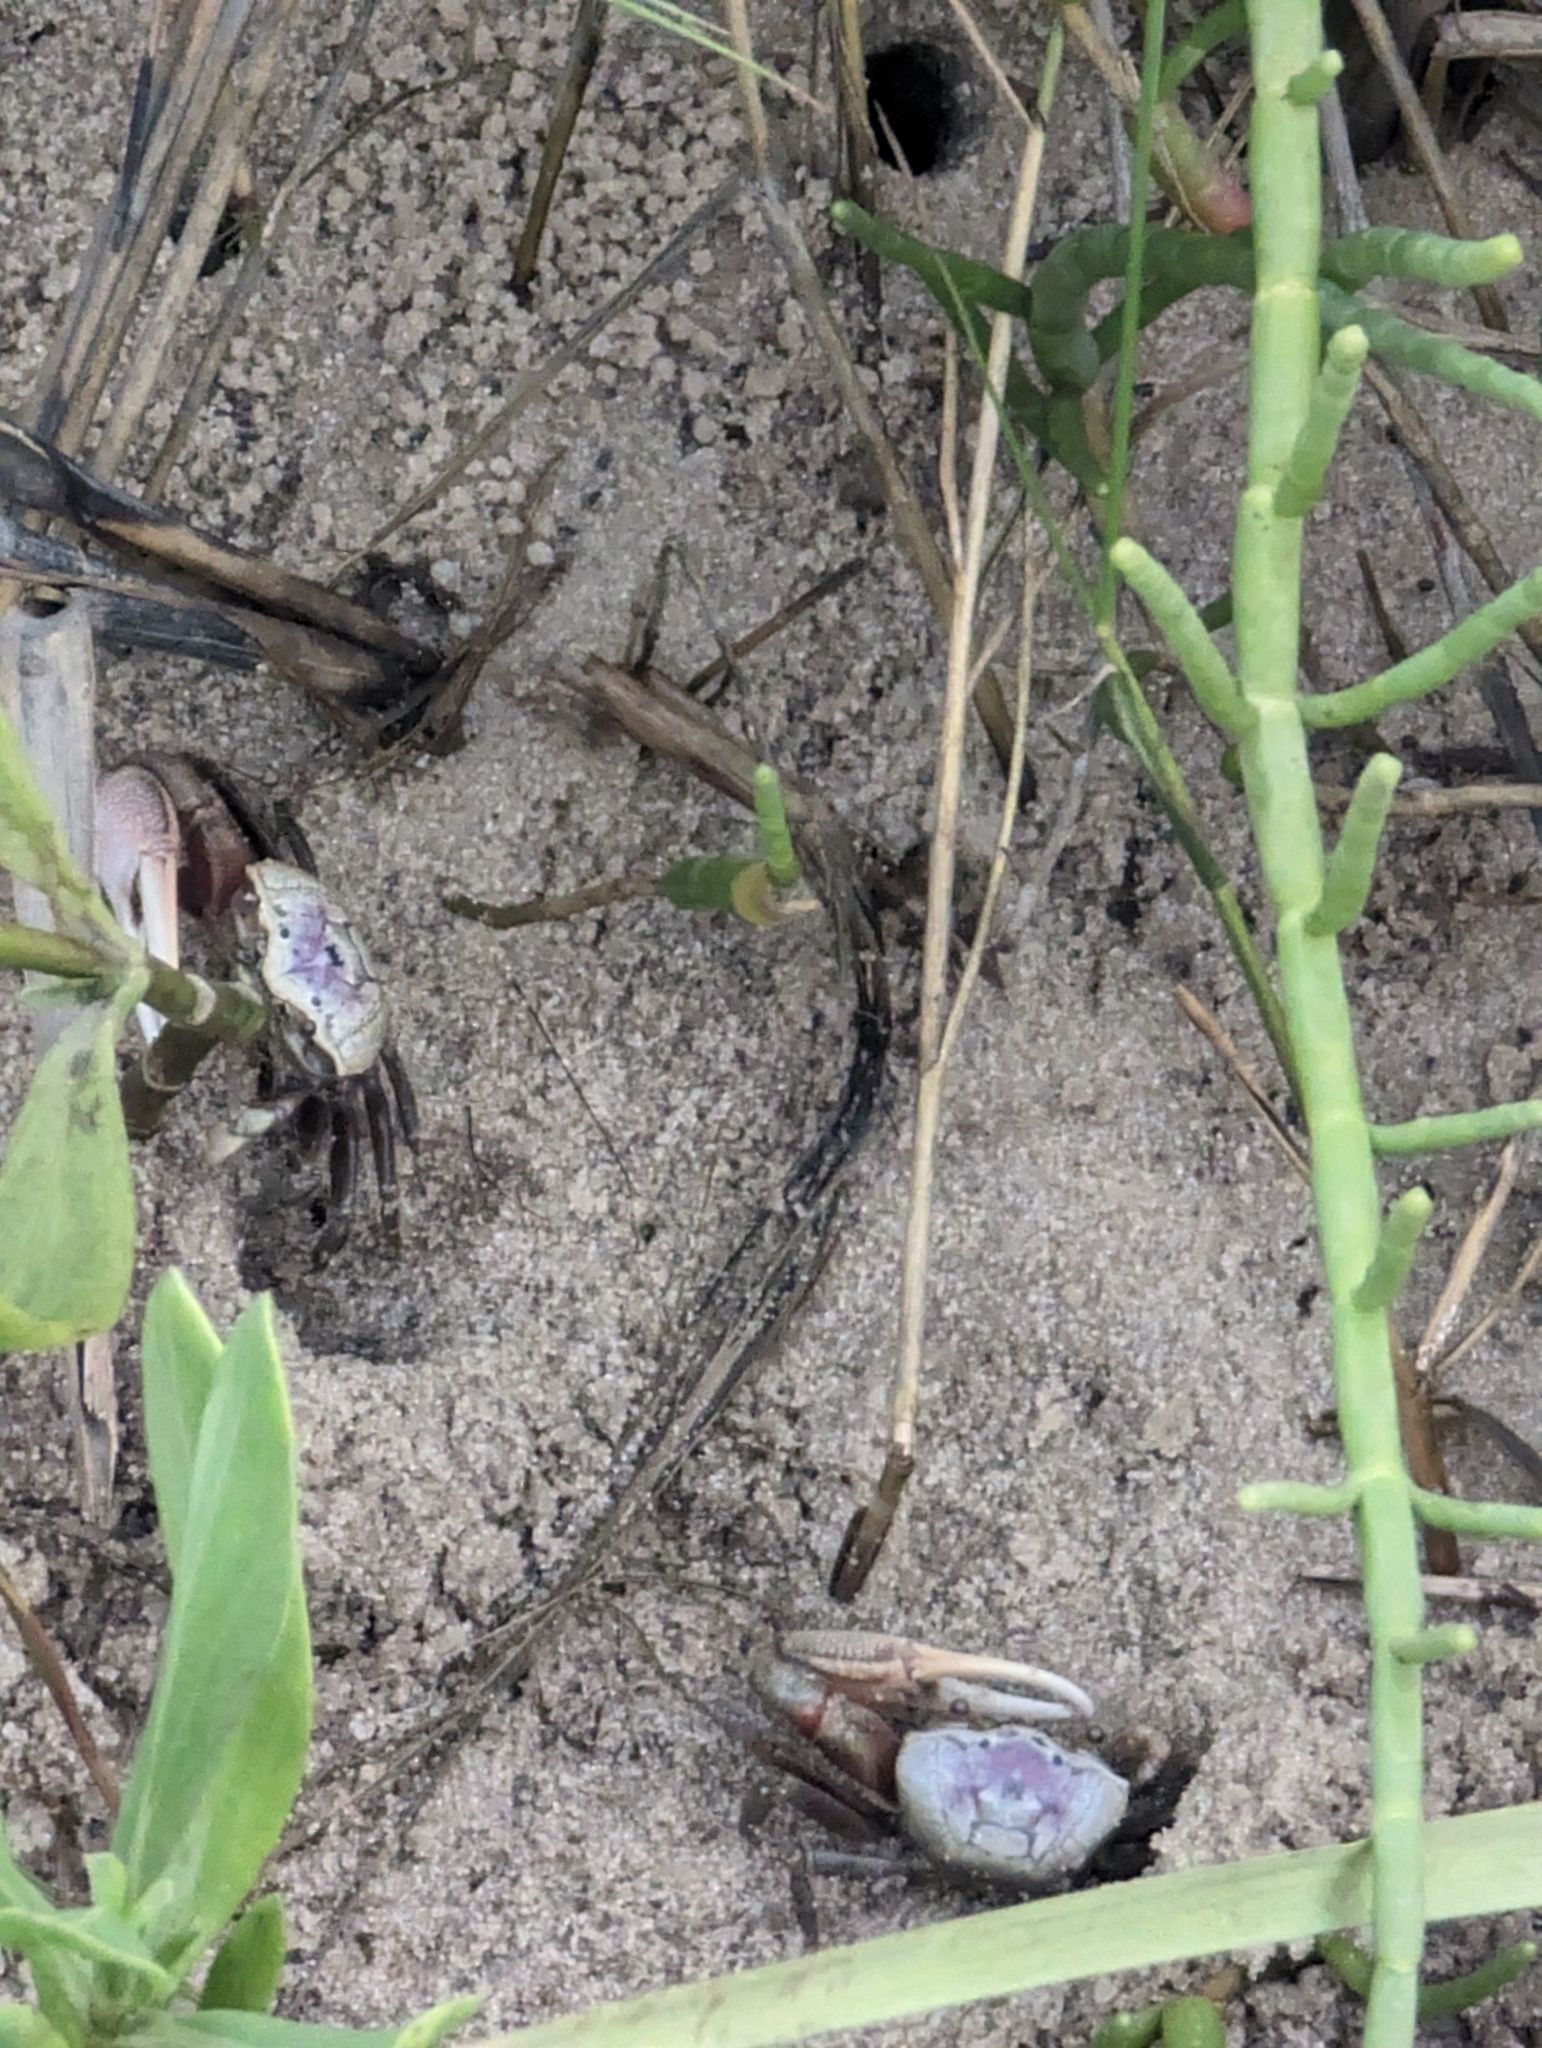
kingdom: Animalia
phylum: Arthropoda
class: Malacostraca
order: Decapoda
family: Ocypodidae
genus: Leptuca
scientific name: Leptuca pugilator
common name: Atlantic sand fiddler crab
